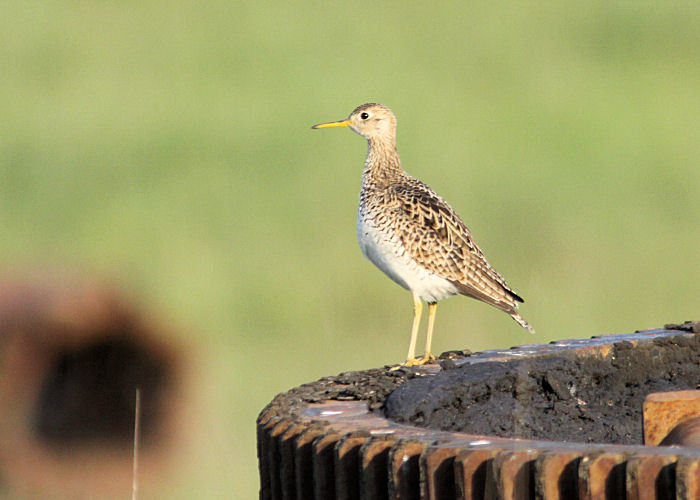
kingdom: Animalia
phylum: Chordata
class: Aves
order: Charadriiformes
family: Scolopacidae
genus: Bartramia
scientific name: Bartramia longicauda
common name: Upland sandpiper
